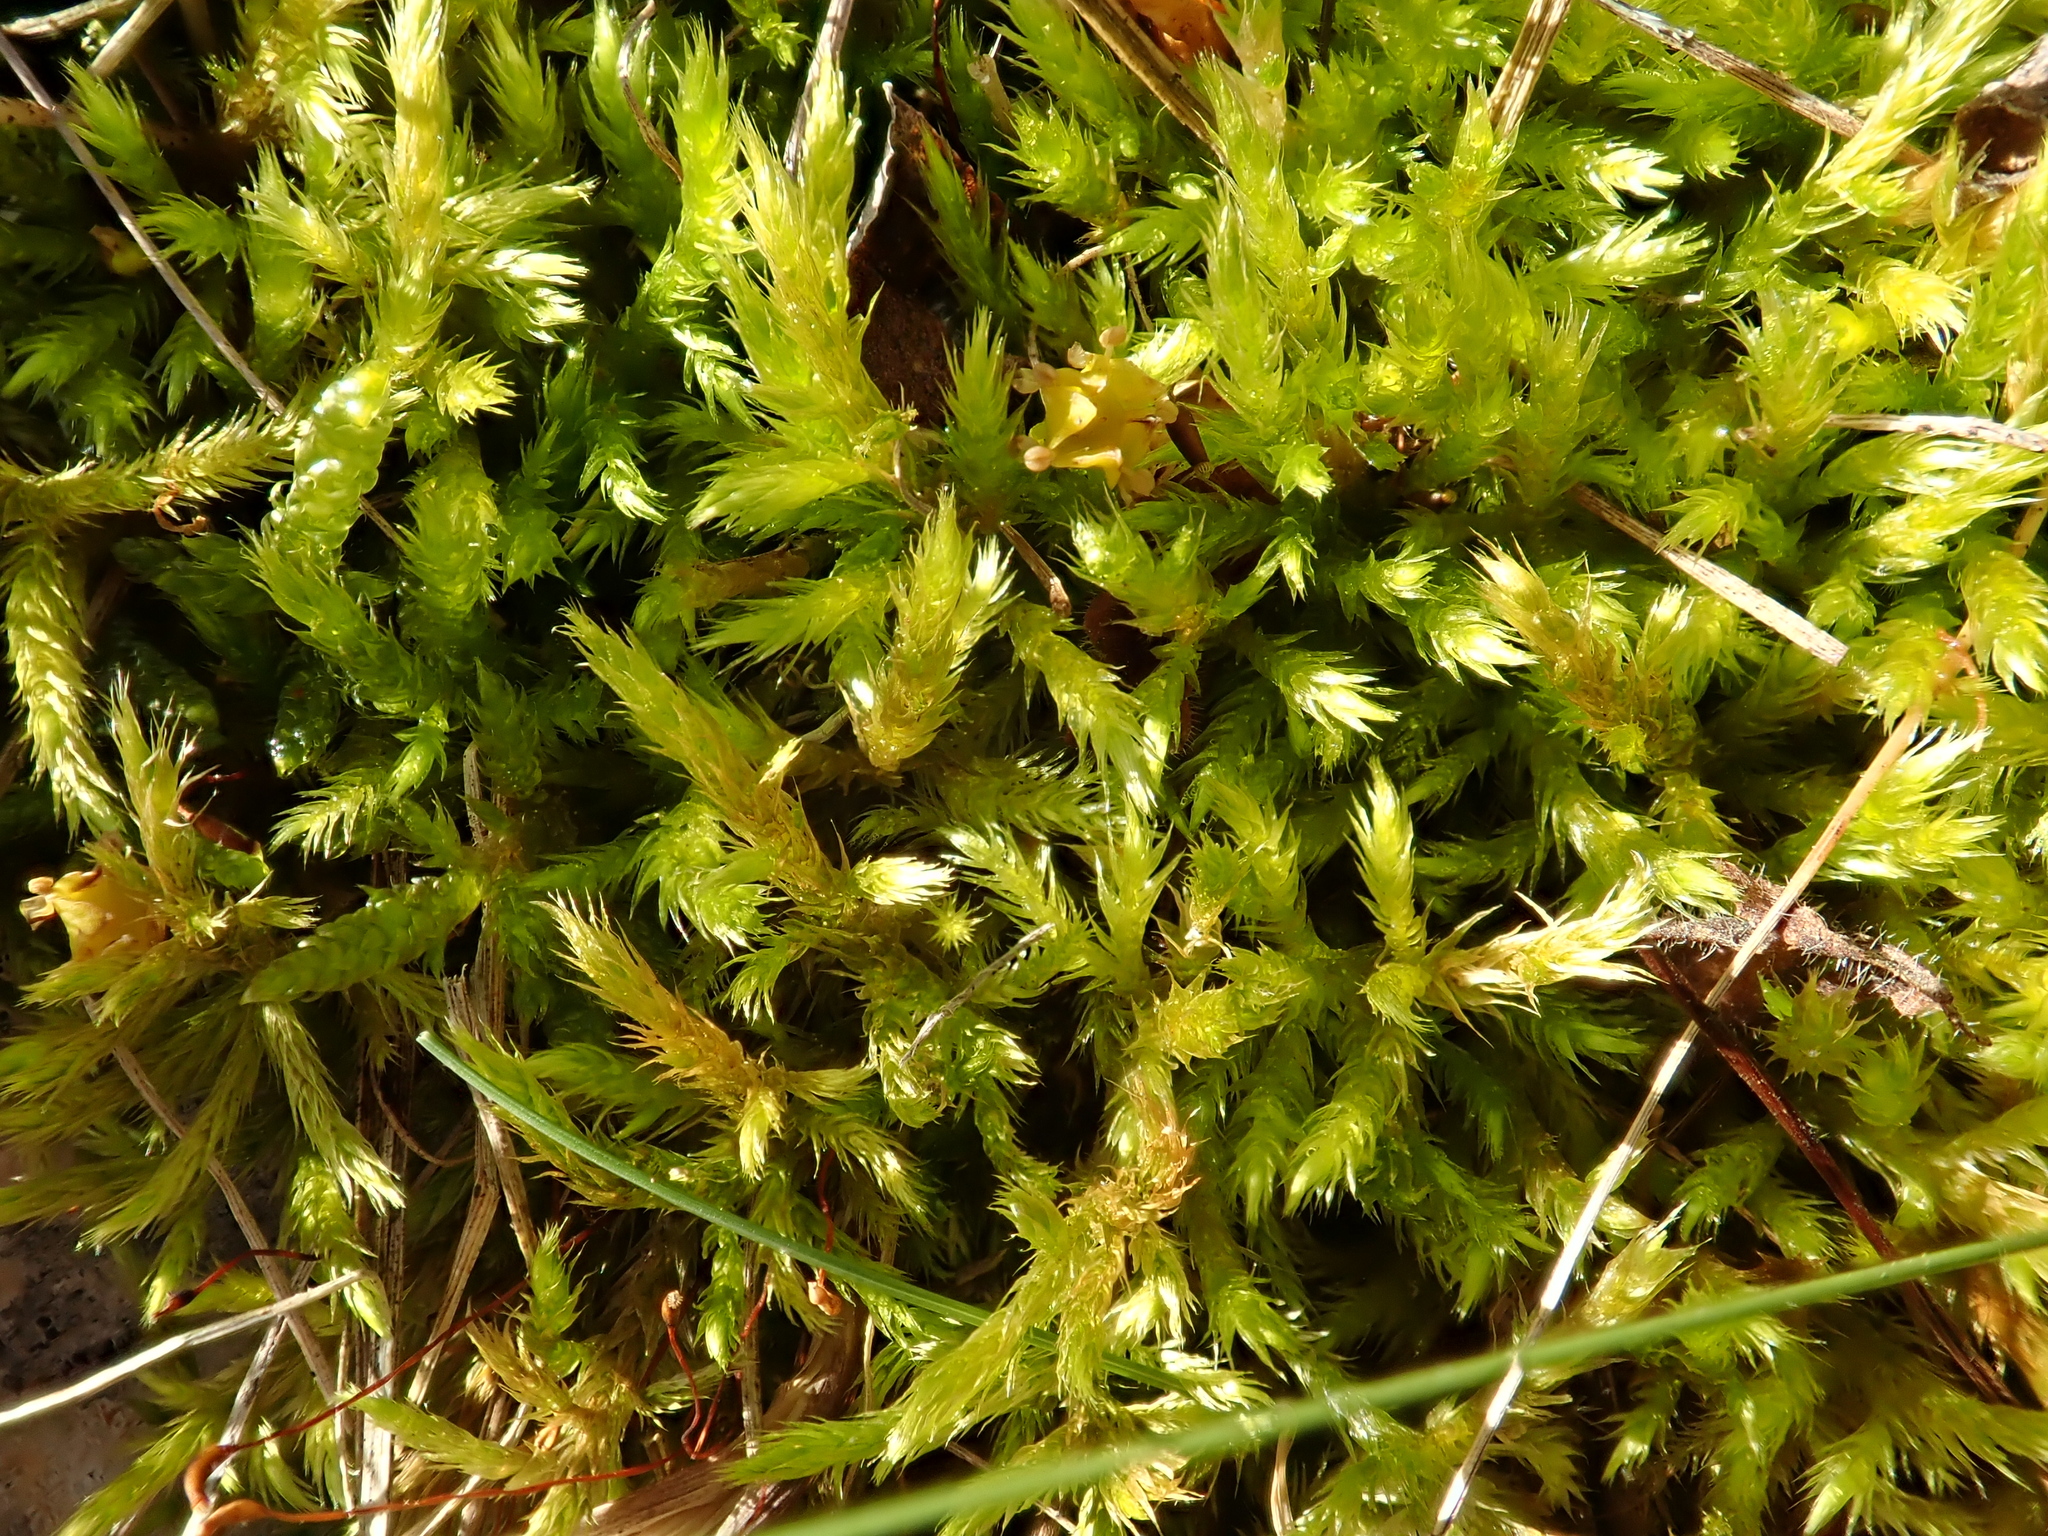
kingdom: Plantae
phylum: Bryophyta
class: Bryopsida
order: Hypnales
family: Brachytheciaceae
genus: Homalothecium
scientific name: Homalothecium lutescens
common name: Yellow feather-moss
